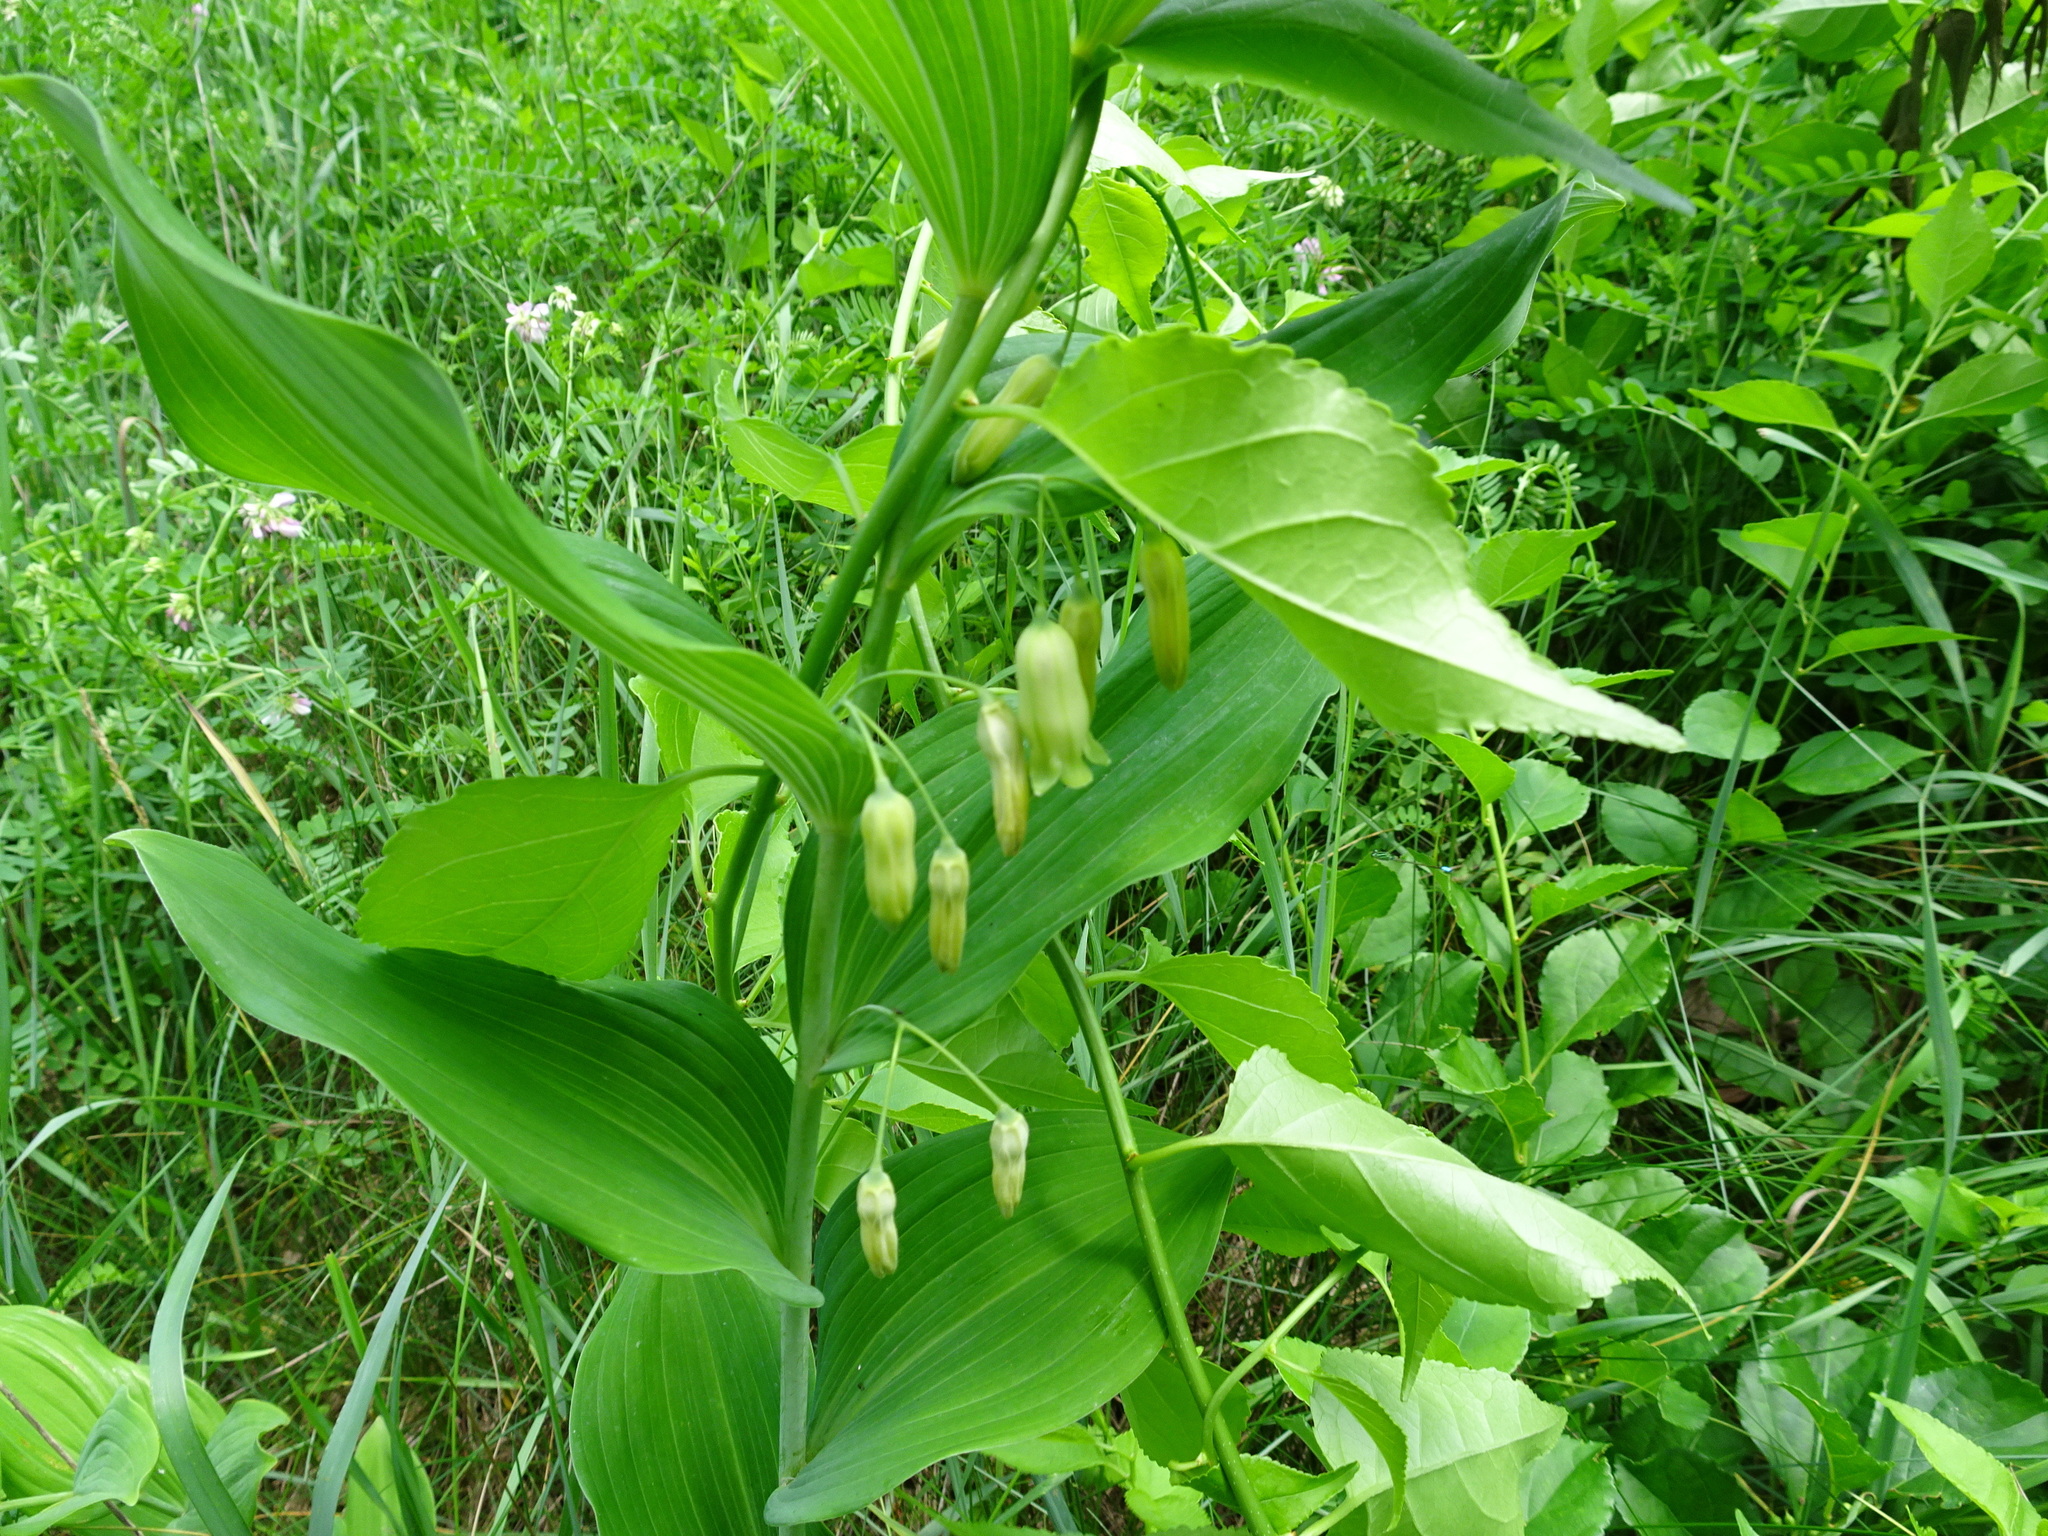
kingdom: Plantae
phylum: Tracheophyta
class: Liliopsida
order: Asparagales
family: Asparagaceae
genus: Polygonatum
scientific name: Polygonatum biflorum
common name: American solomon's-seal
